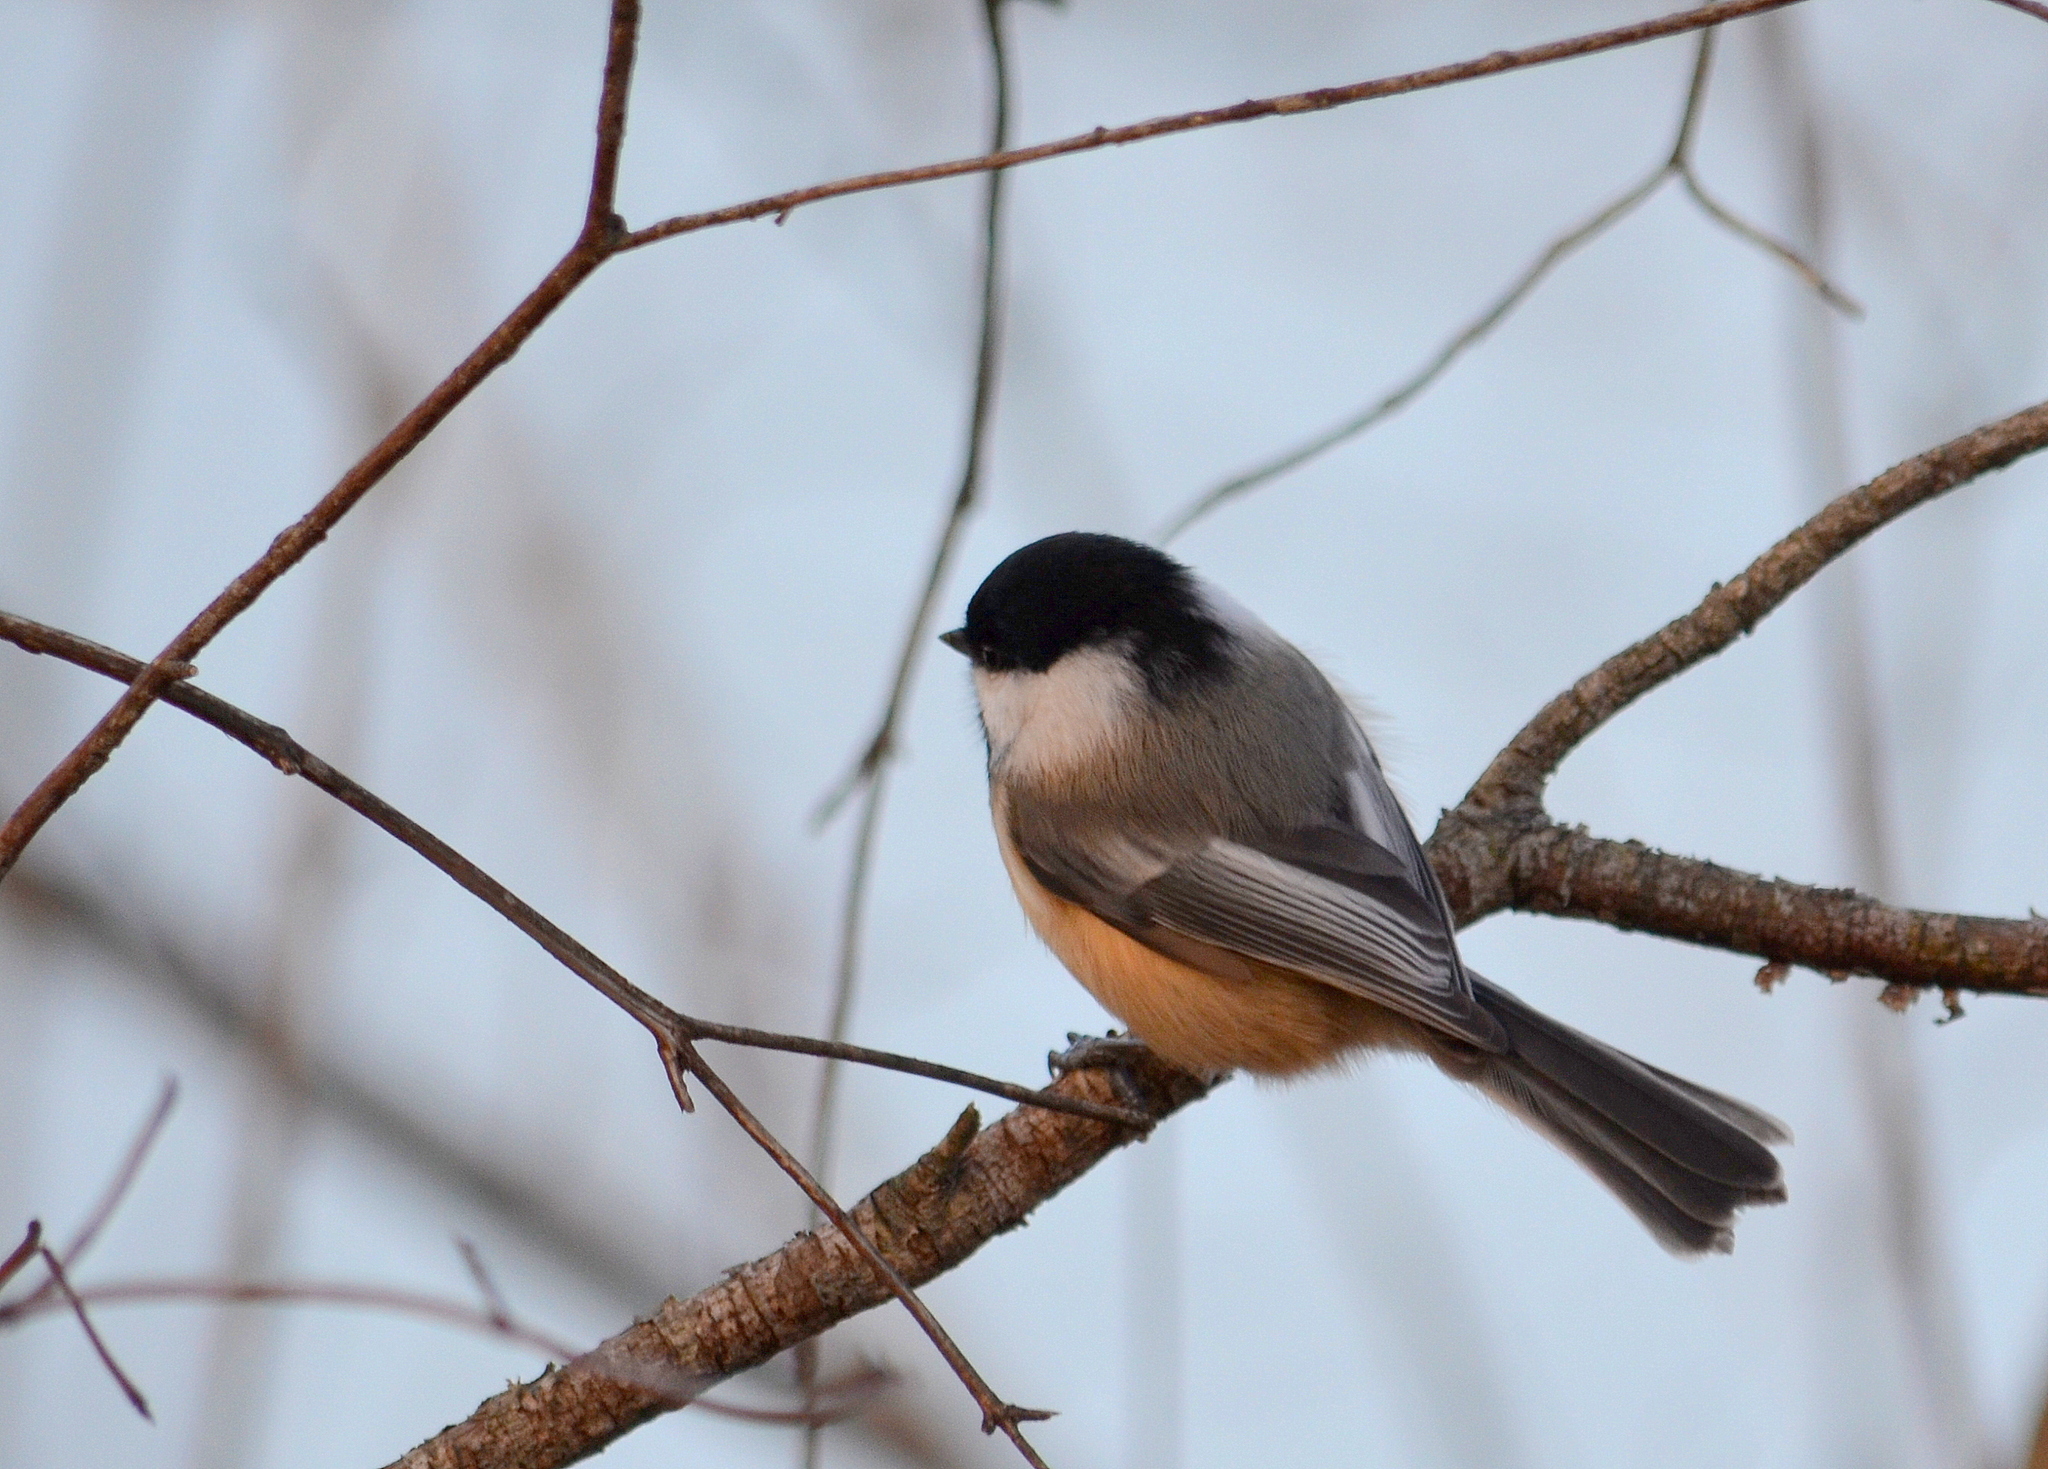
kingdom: Animalia
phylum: Chordata
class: Aves
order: Passeriformes
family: Paridae
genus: Poecile
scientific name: Poecile atricapillus
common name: Black-capped chickadee
